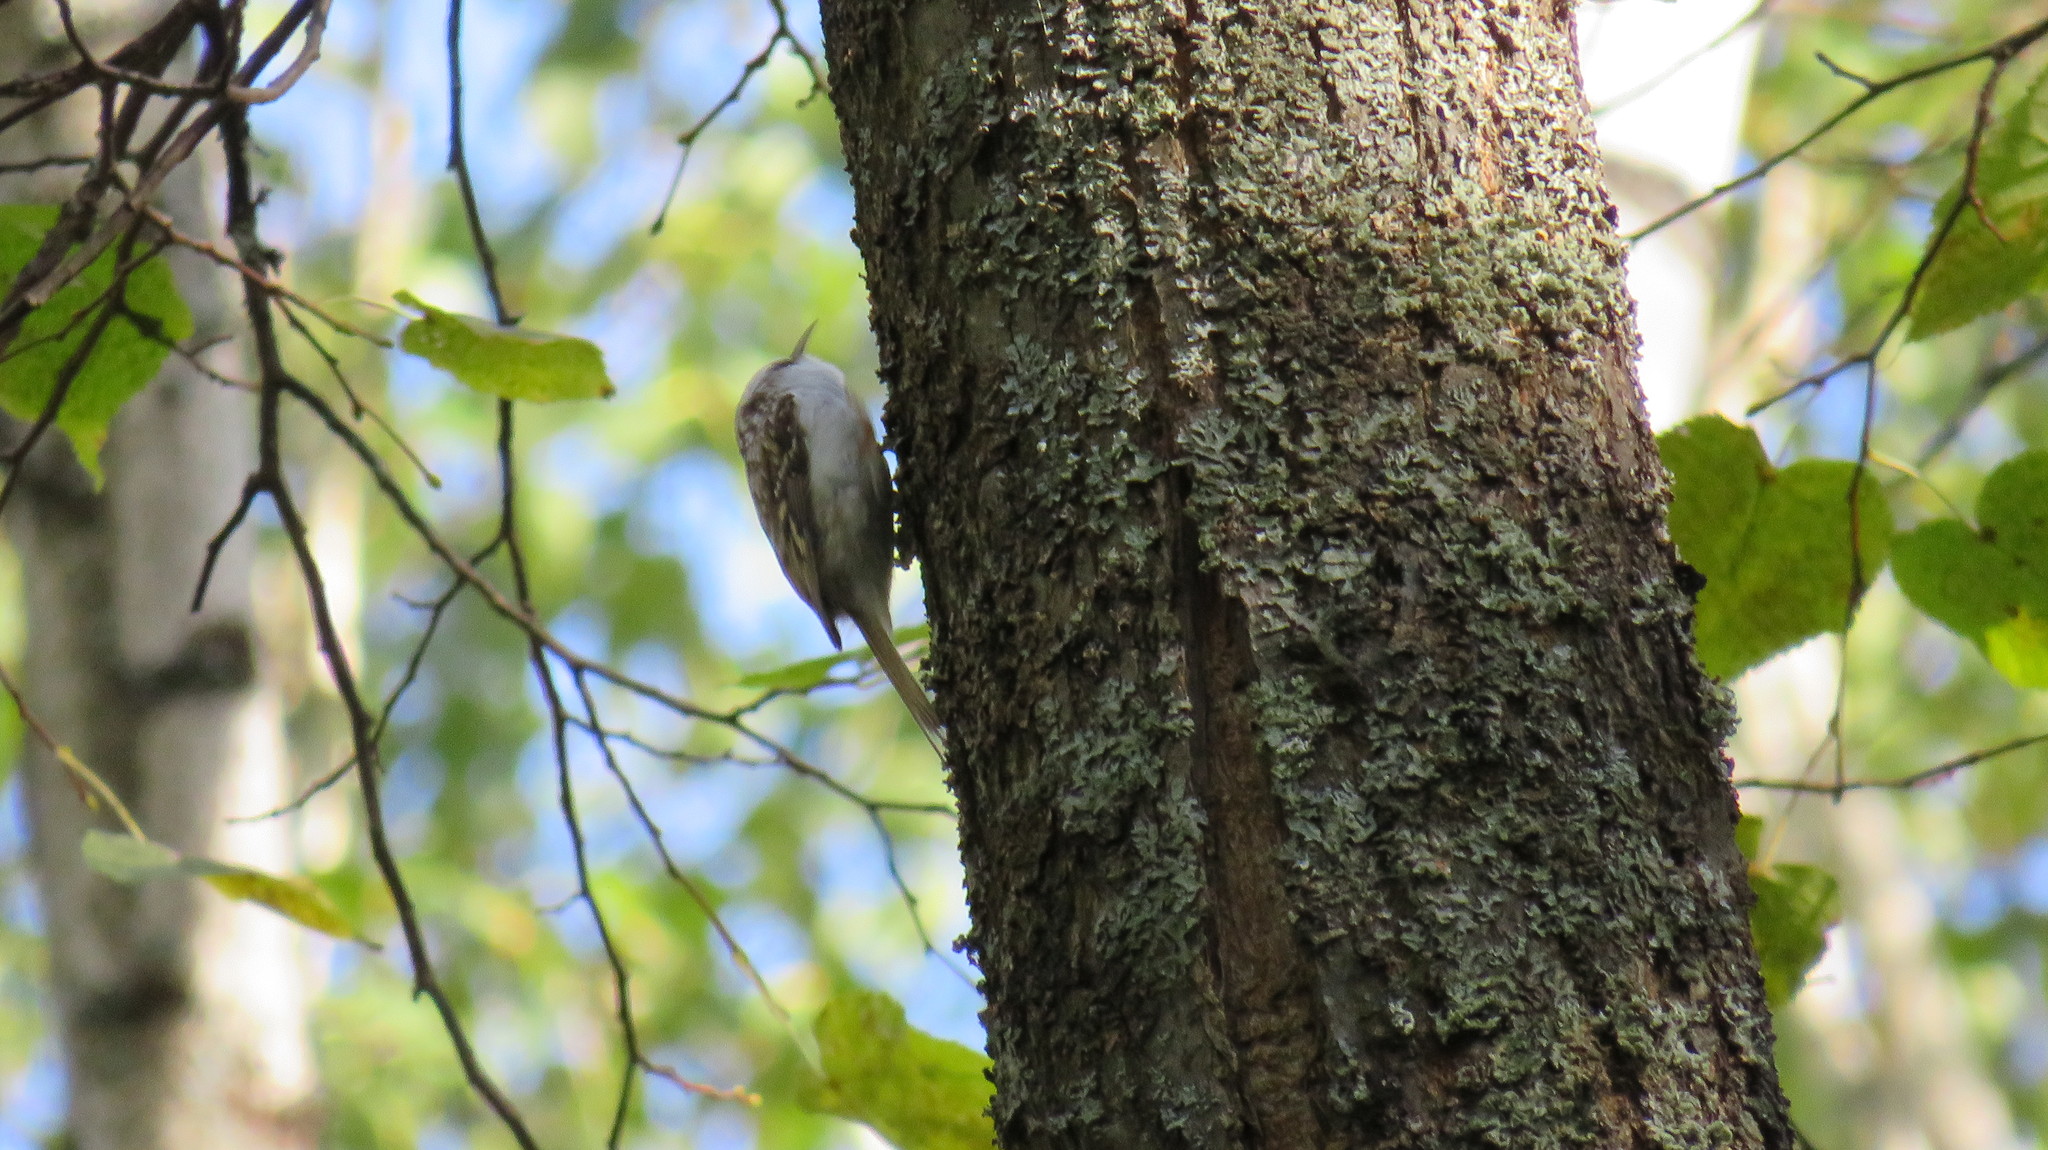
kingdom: Animalia
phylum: Chordata
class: Aves
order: Passeriformes
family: Certhiidae
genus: Certhia
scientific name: Certhia familiaris
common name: Eurasian treecreeper
